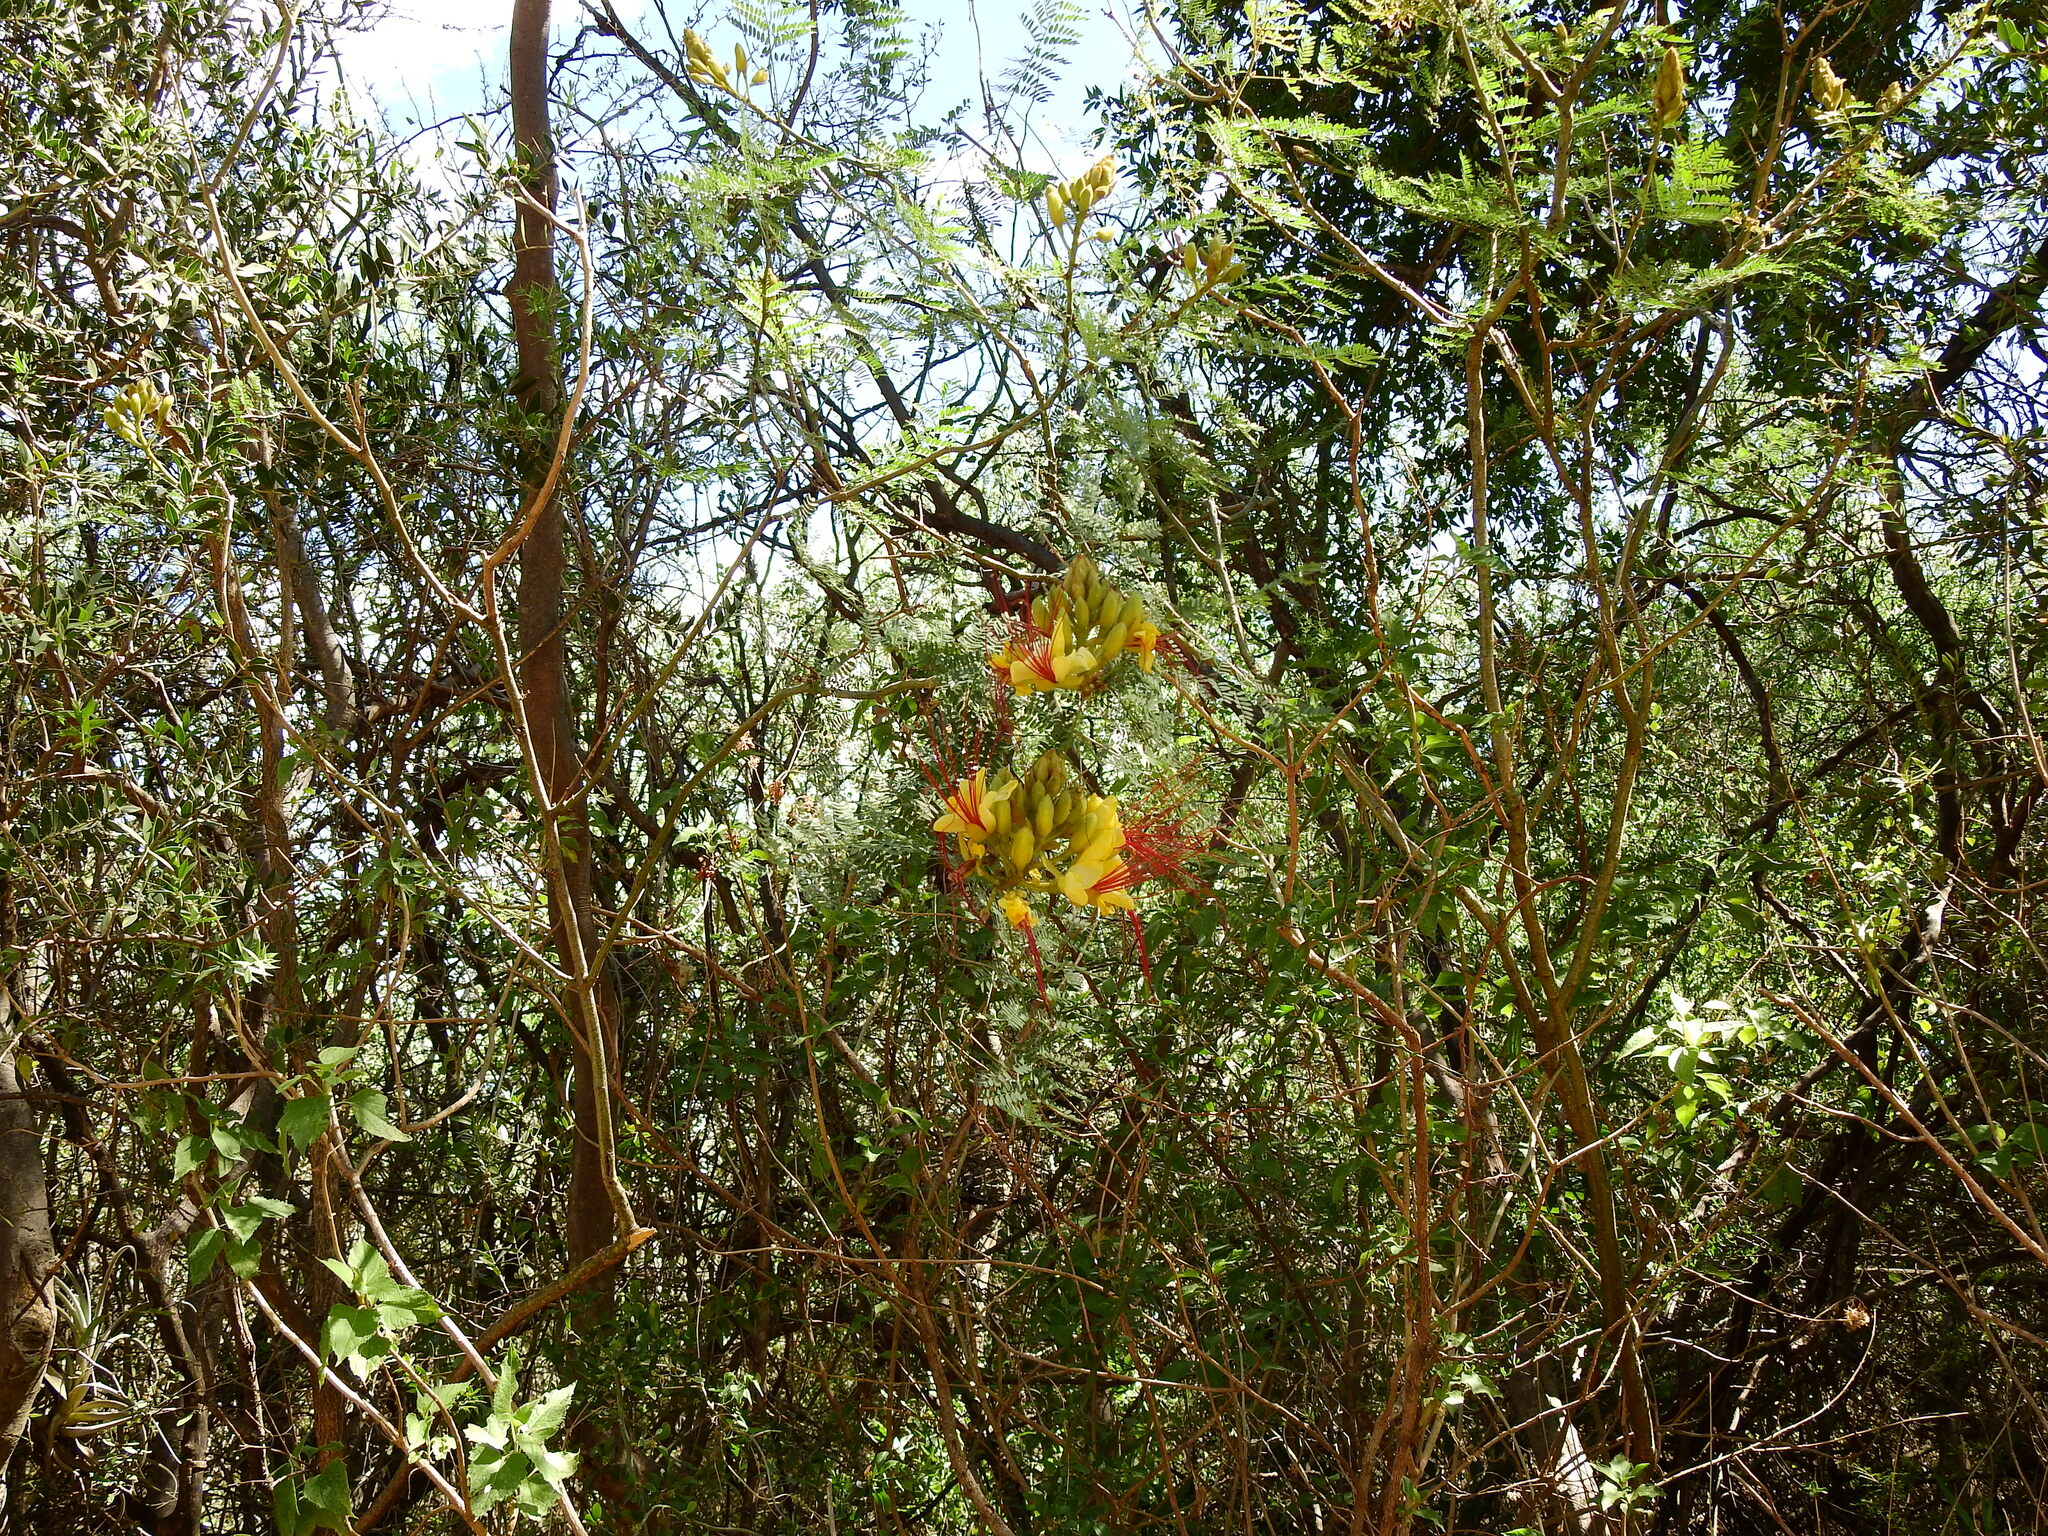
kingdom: Plantae
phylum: Tracheophyta
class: Magnoliopsida
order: Fabales
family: Fabaceae
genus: Erythrostemon
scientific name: Erythrostemon gilliesii
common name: Bird-of-paradise shrub
